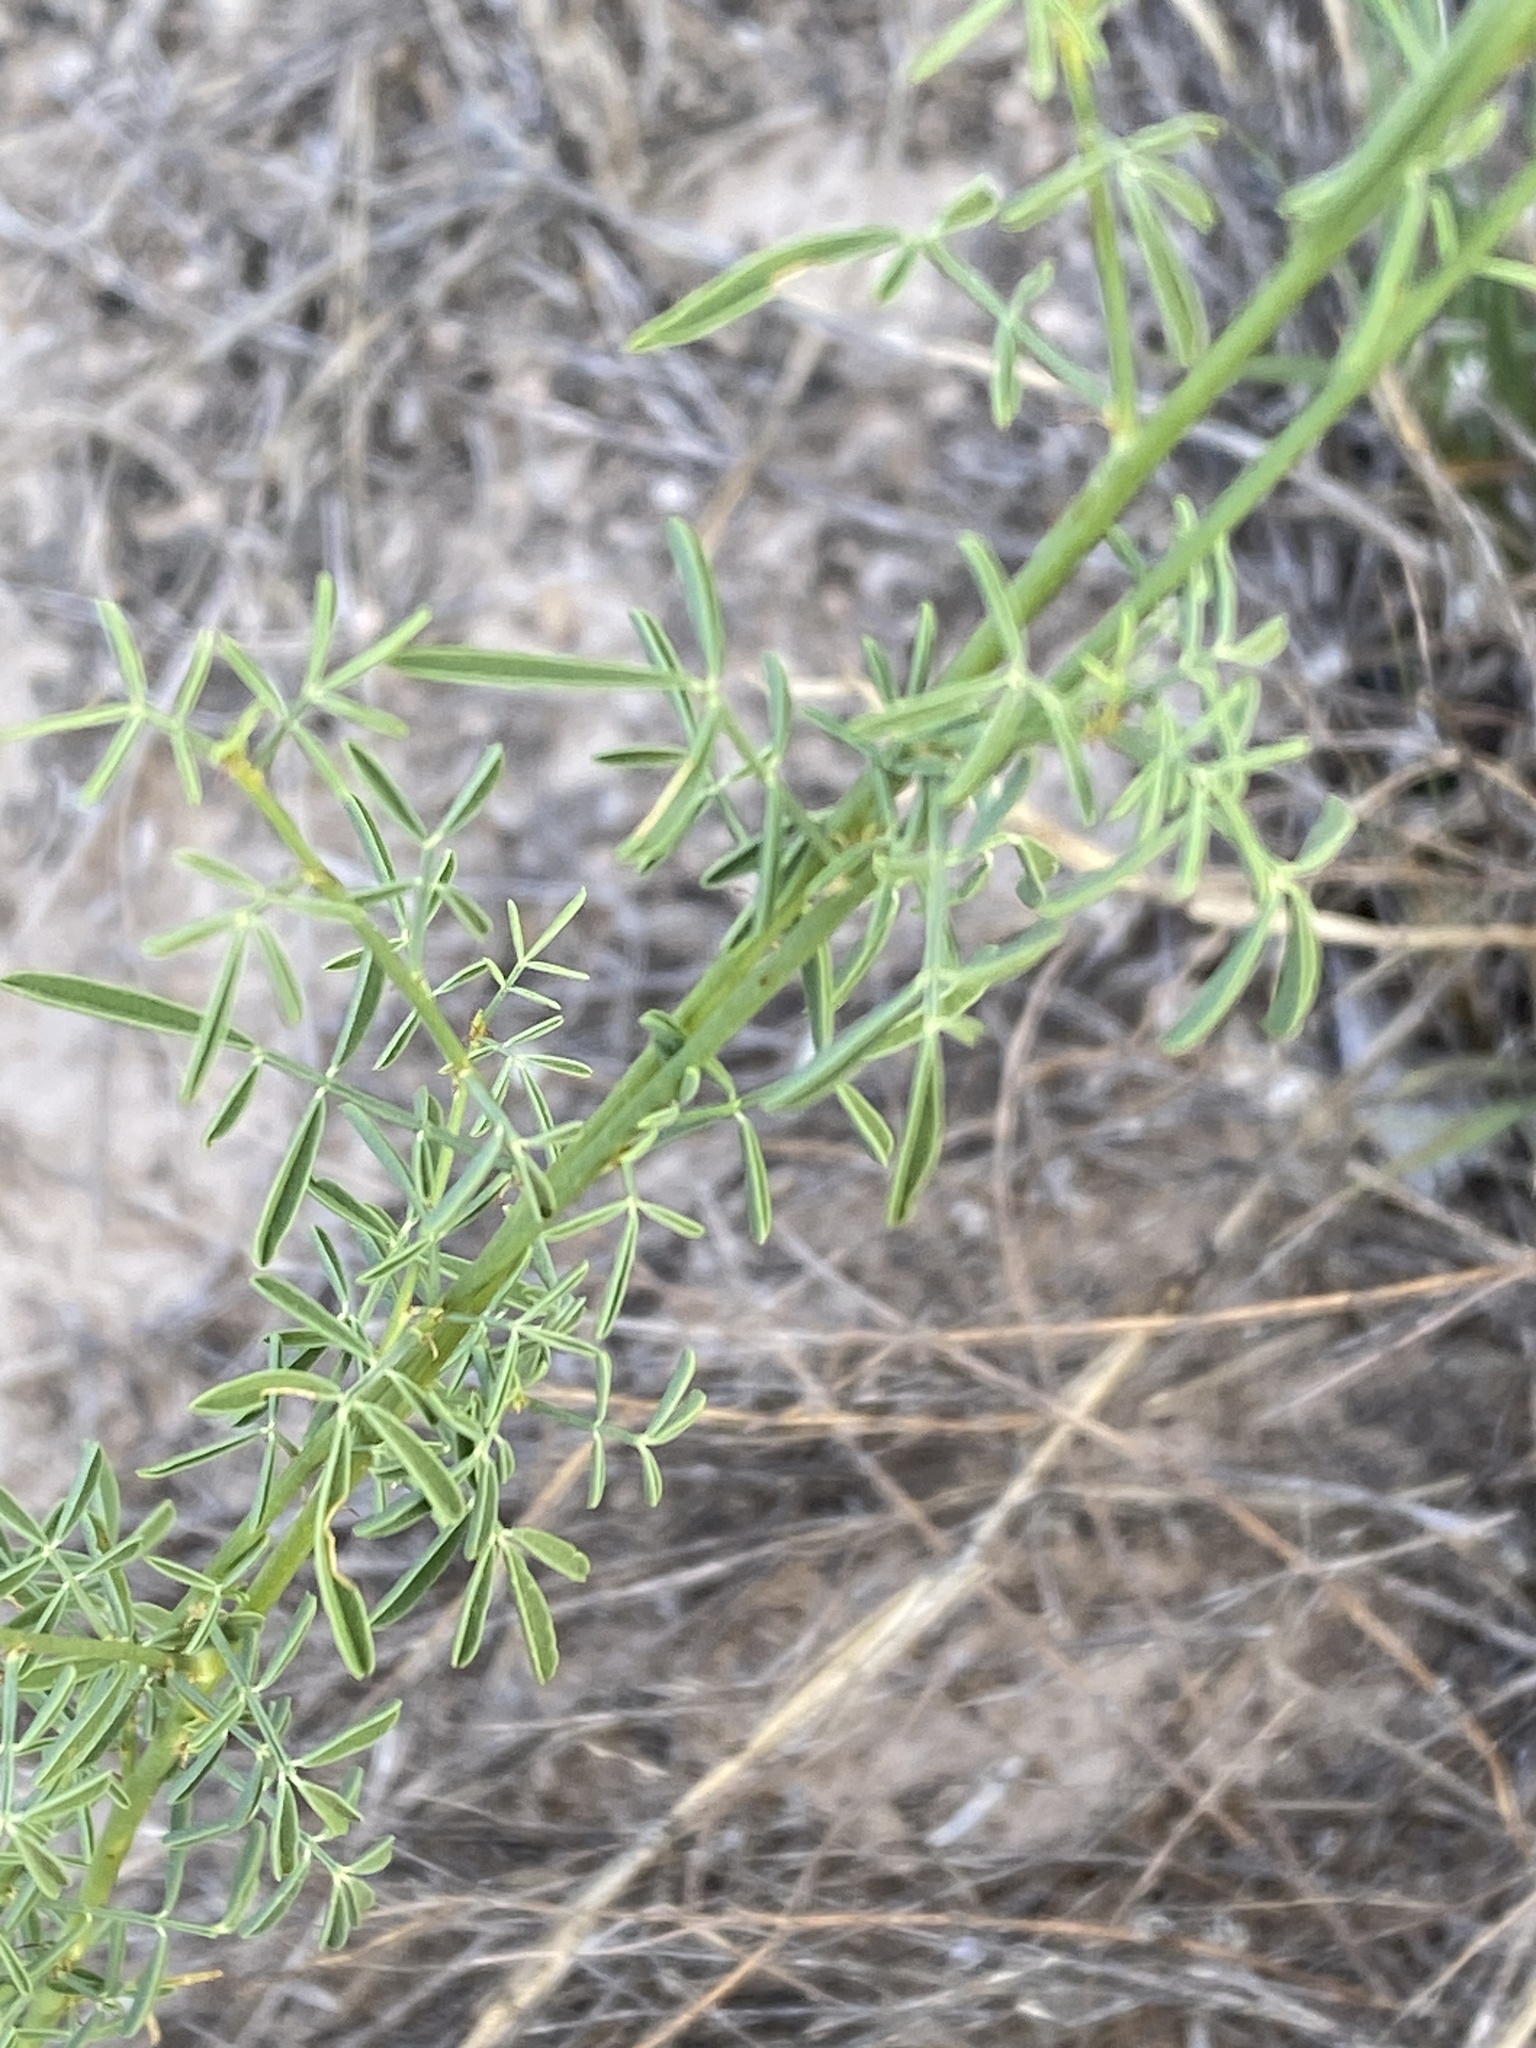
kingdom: Plantae
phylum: Tracheophyta
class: Magnoliopsida
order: Fabales
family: Fabaceae
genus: Dalea
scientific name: Dalea candida
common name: White prairie-clover
